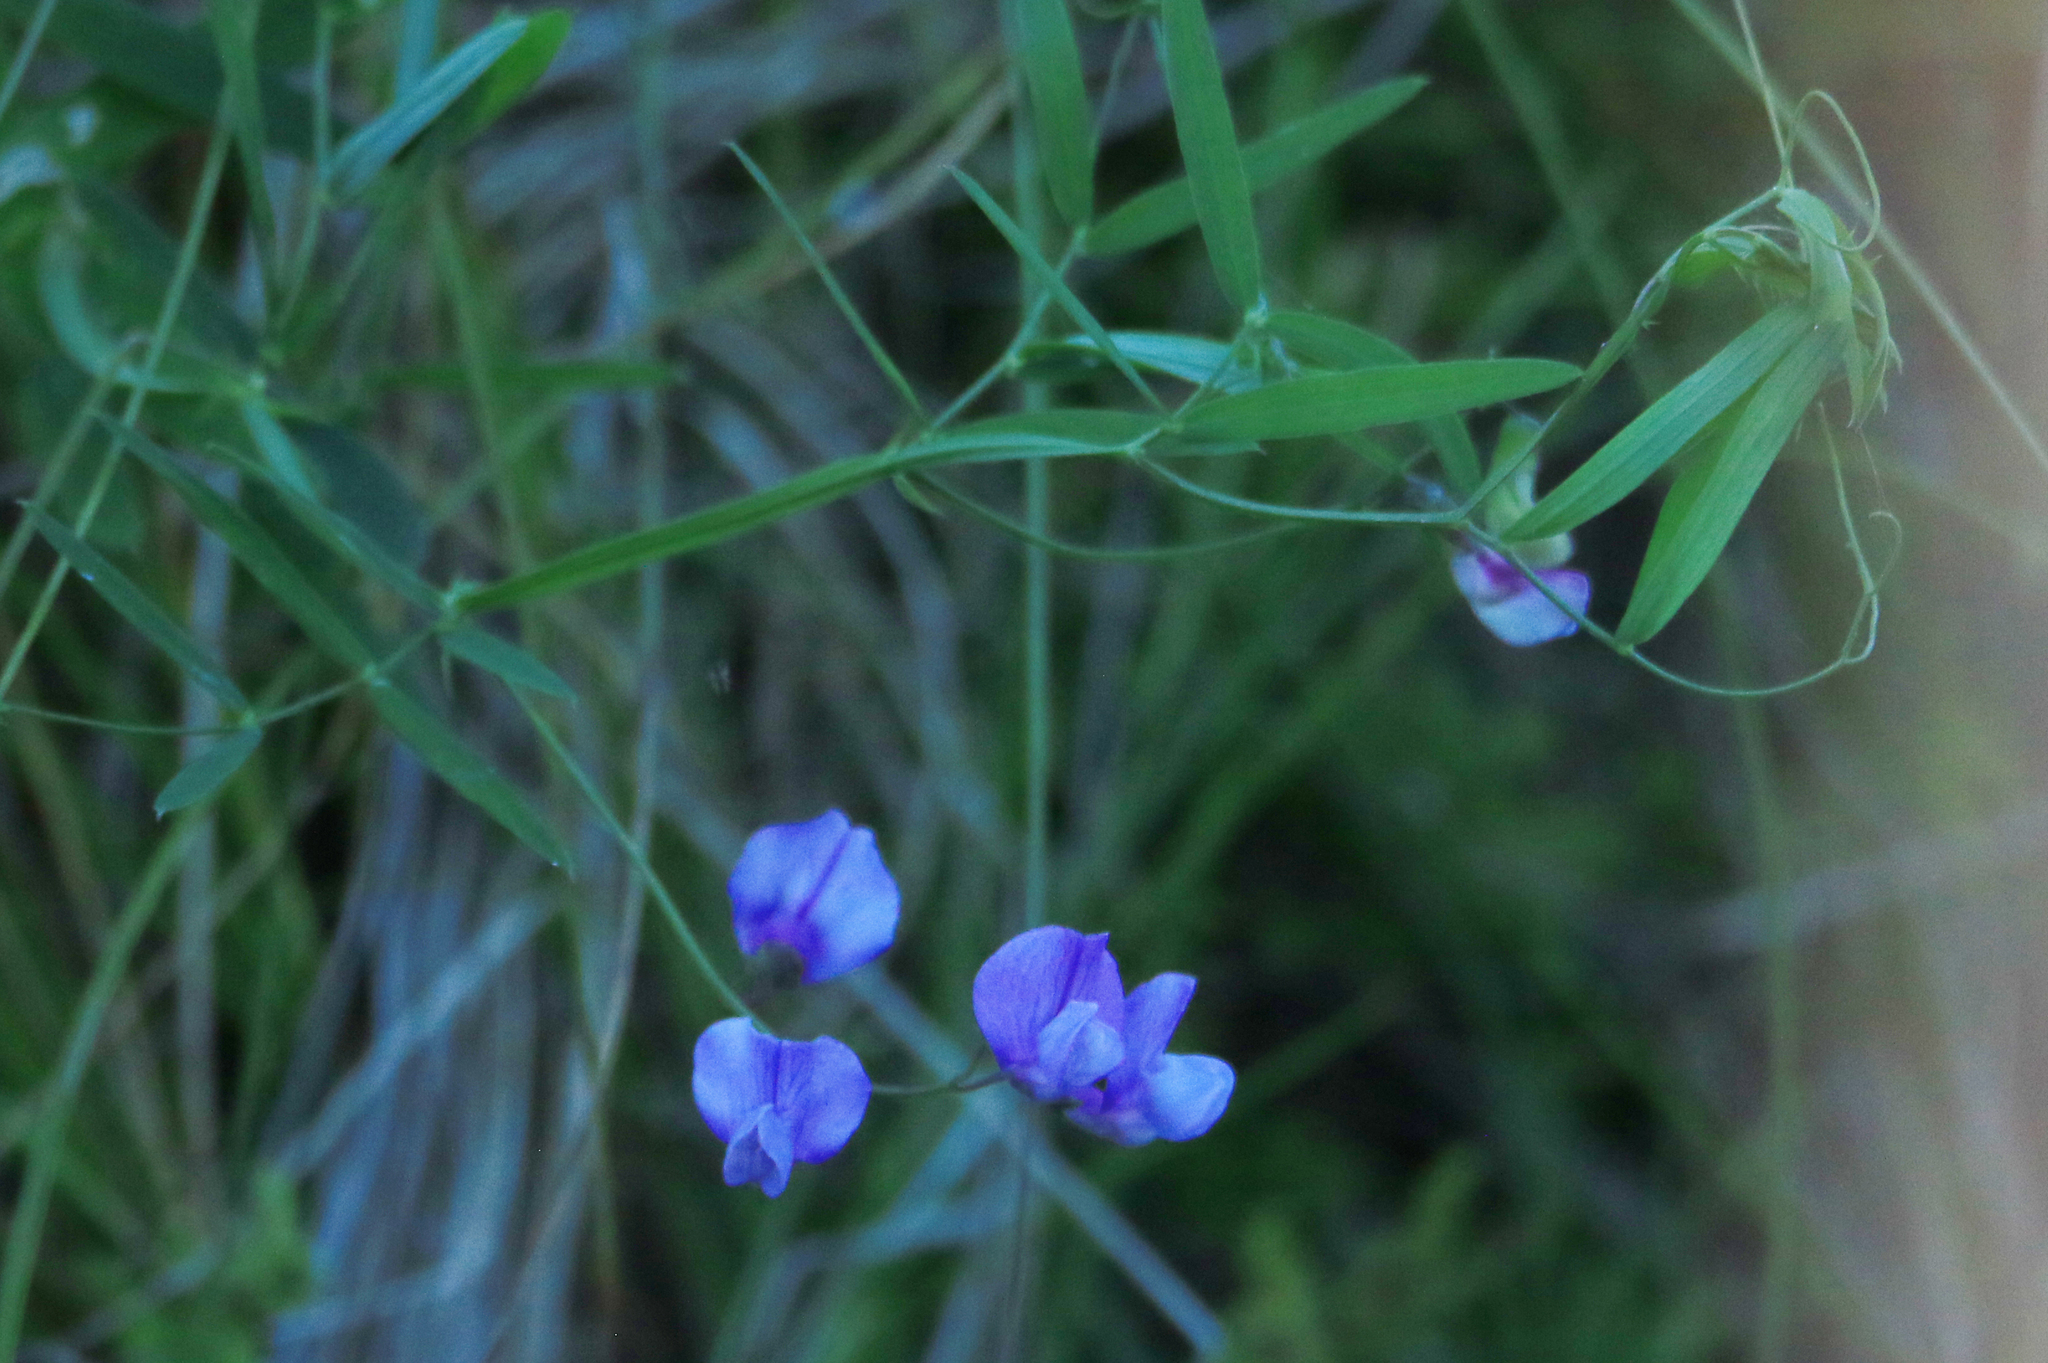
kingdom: Plantae
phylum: Tracheophyta
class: Magnoliopsida
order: Fabales
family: Fabaceae
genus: Lathyrus
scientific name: Lathyrus palustris
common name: Marsh pea
